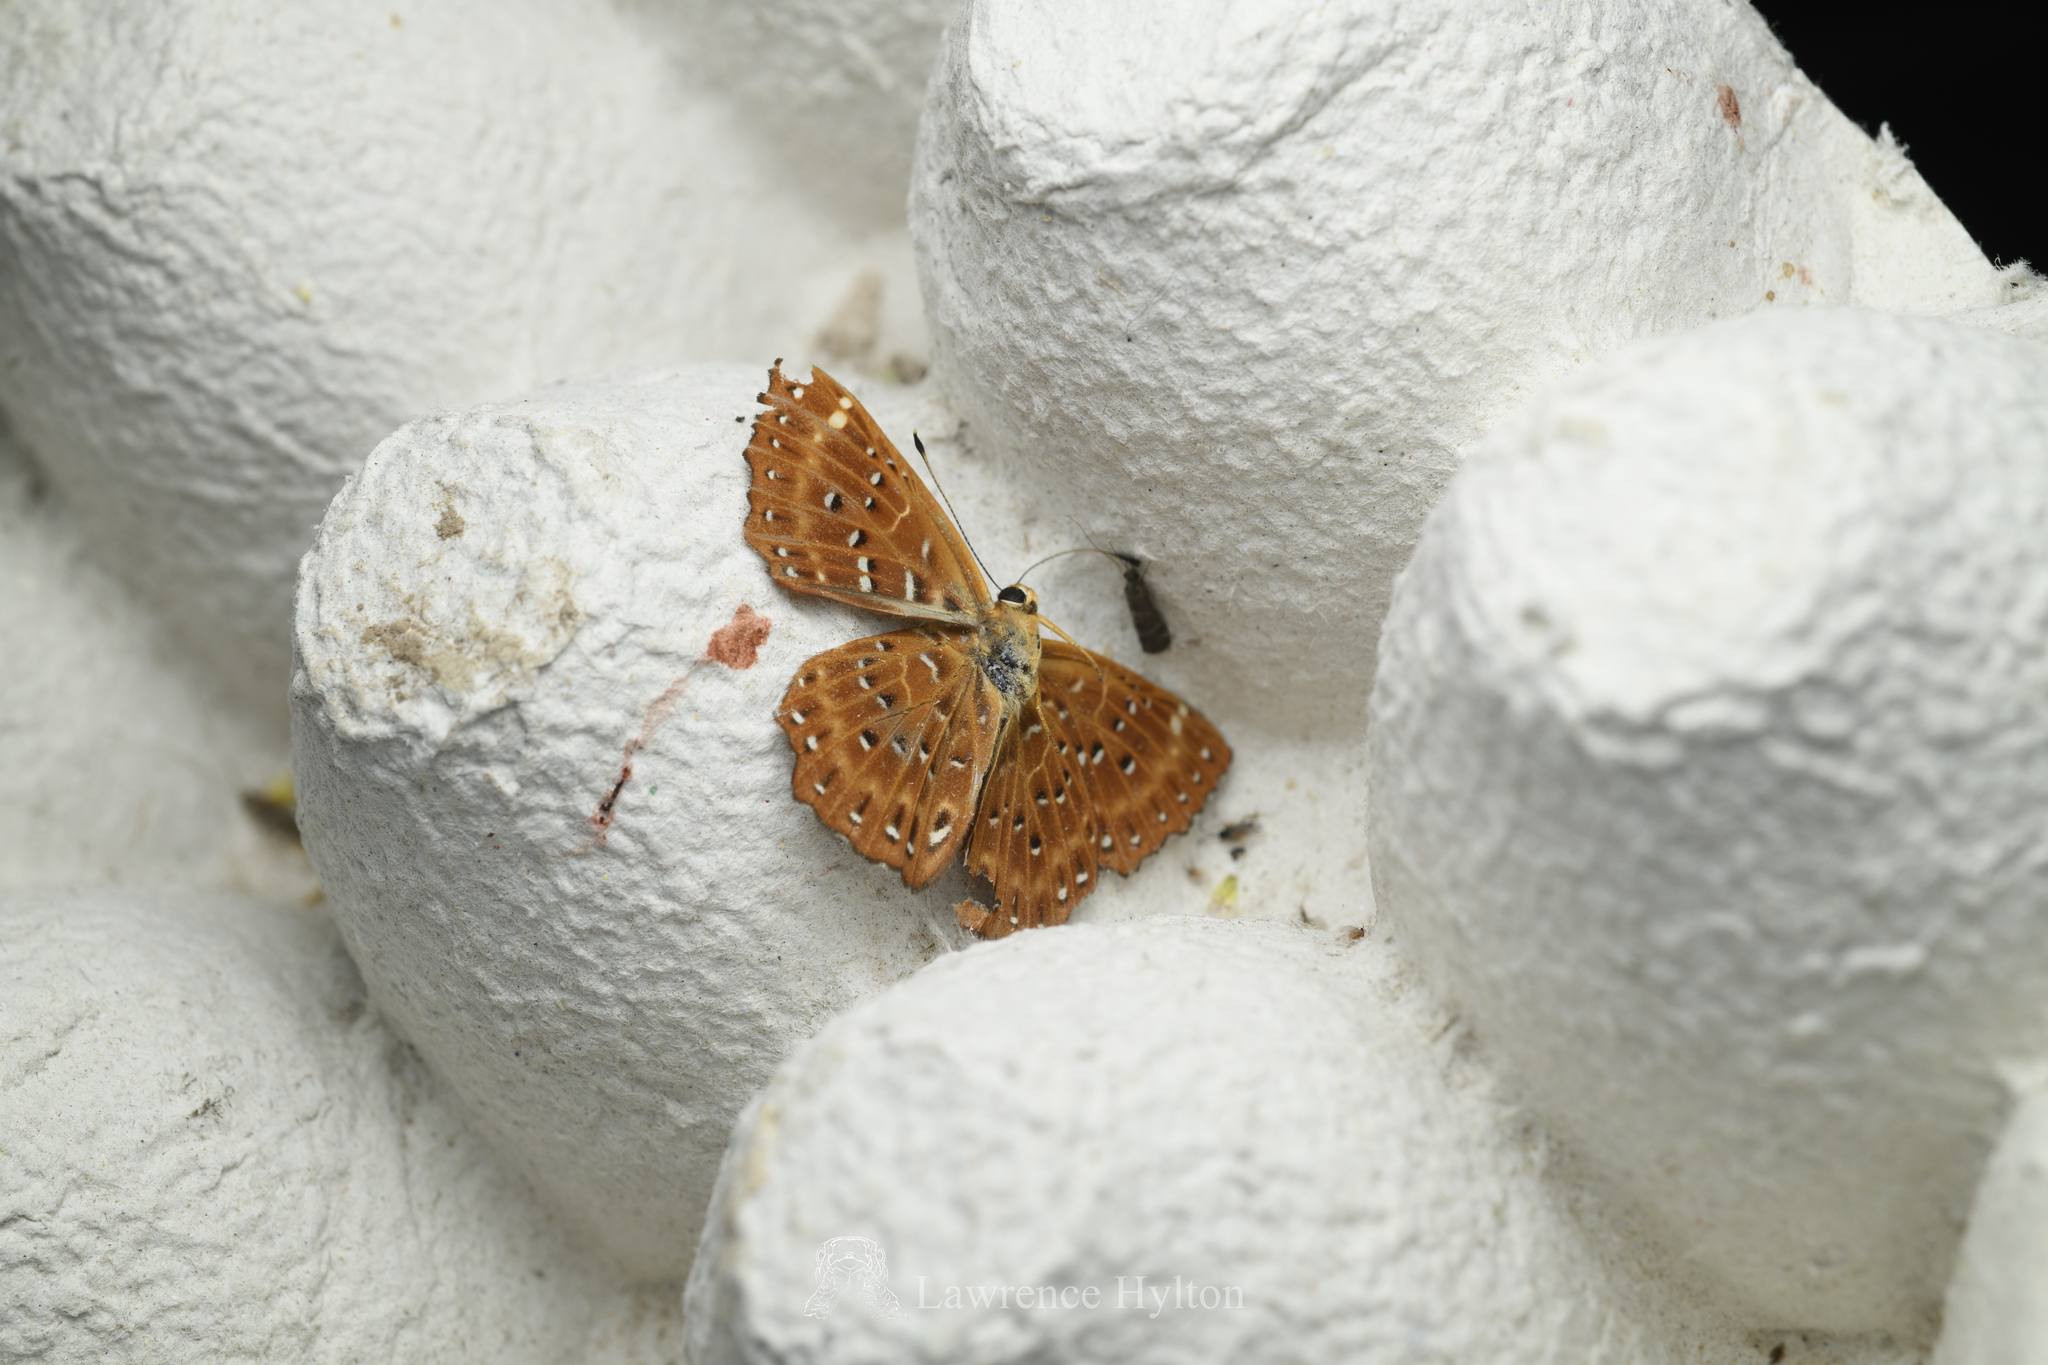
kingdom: Animalia
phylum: Arthropoda
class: Insecta
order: Lepidoptera
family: Riodinidae
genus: Zemeros
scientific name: Zemeros flegyas
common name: Punchinello
